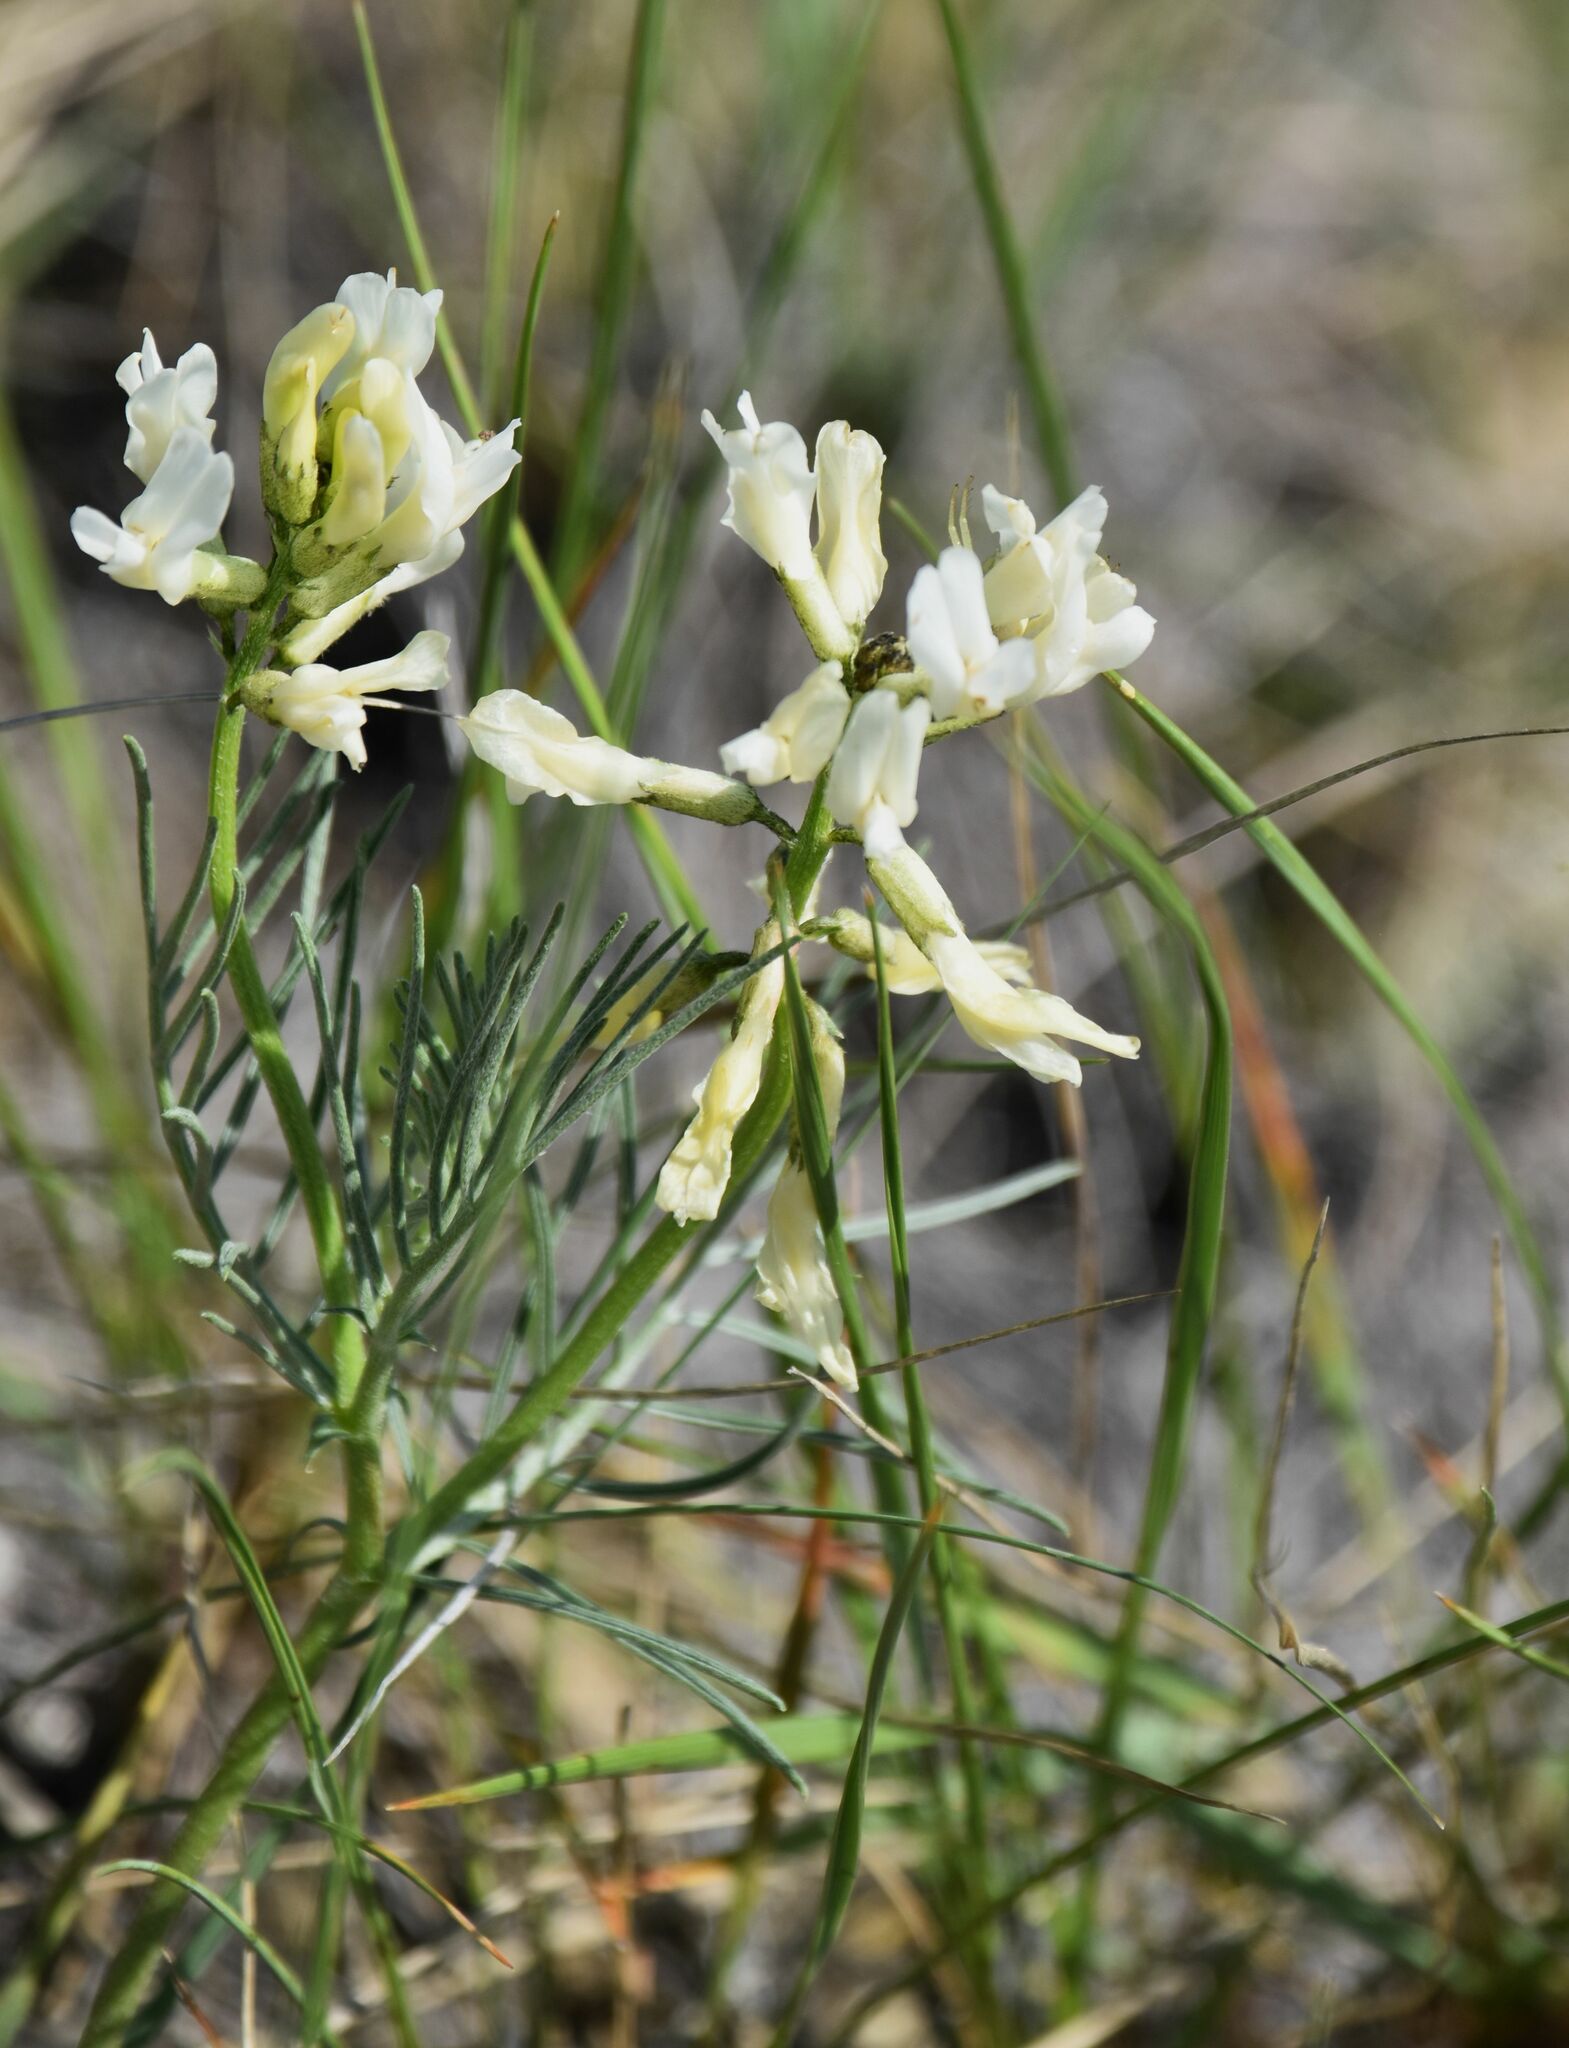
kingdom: Plantae
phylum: Tracheophyta
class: Magnoliopsida
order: Fabales
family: Fabaceae
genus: Astragalus
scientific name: Astragalus pectinatus
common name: Tine-leaf milk-vetch
